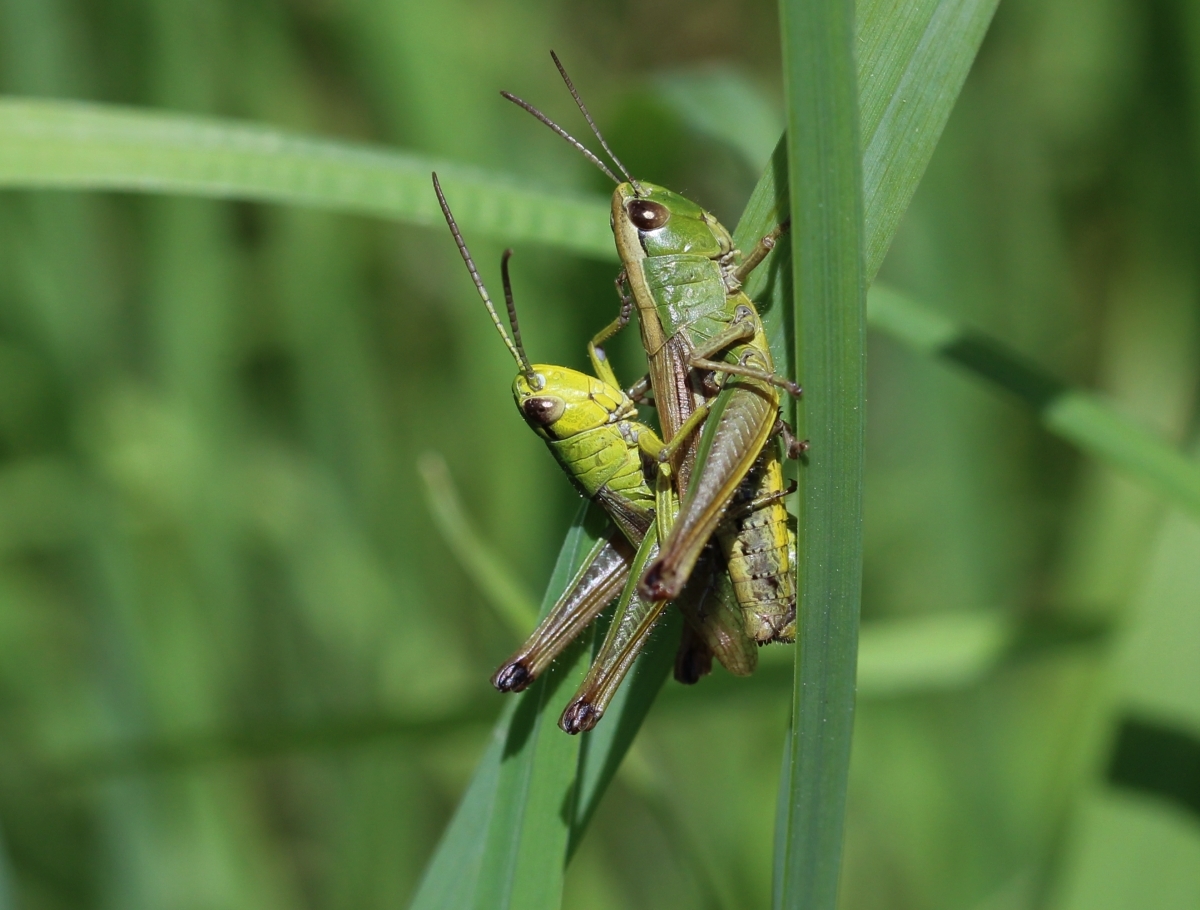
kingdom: Animalia
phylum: Arthropoda
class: Insecta
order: Orthoptera
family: Acrididae
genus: Pseudochorthippus
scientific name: Pseudochorthippus parallelus
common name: Meadow grasshopper
